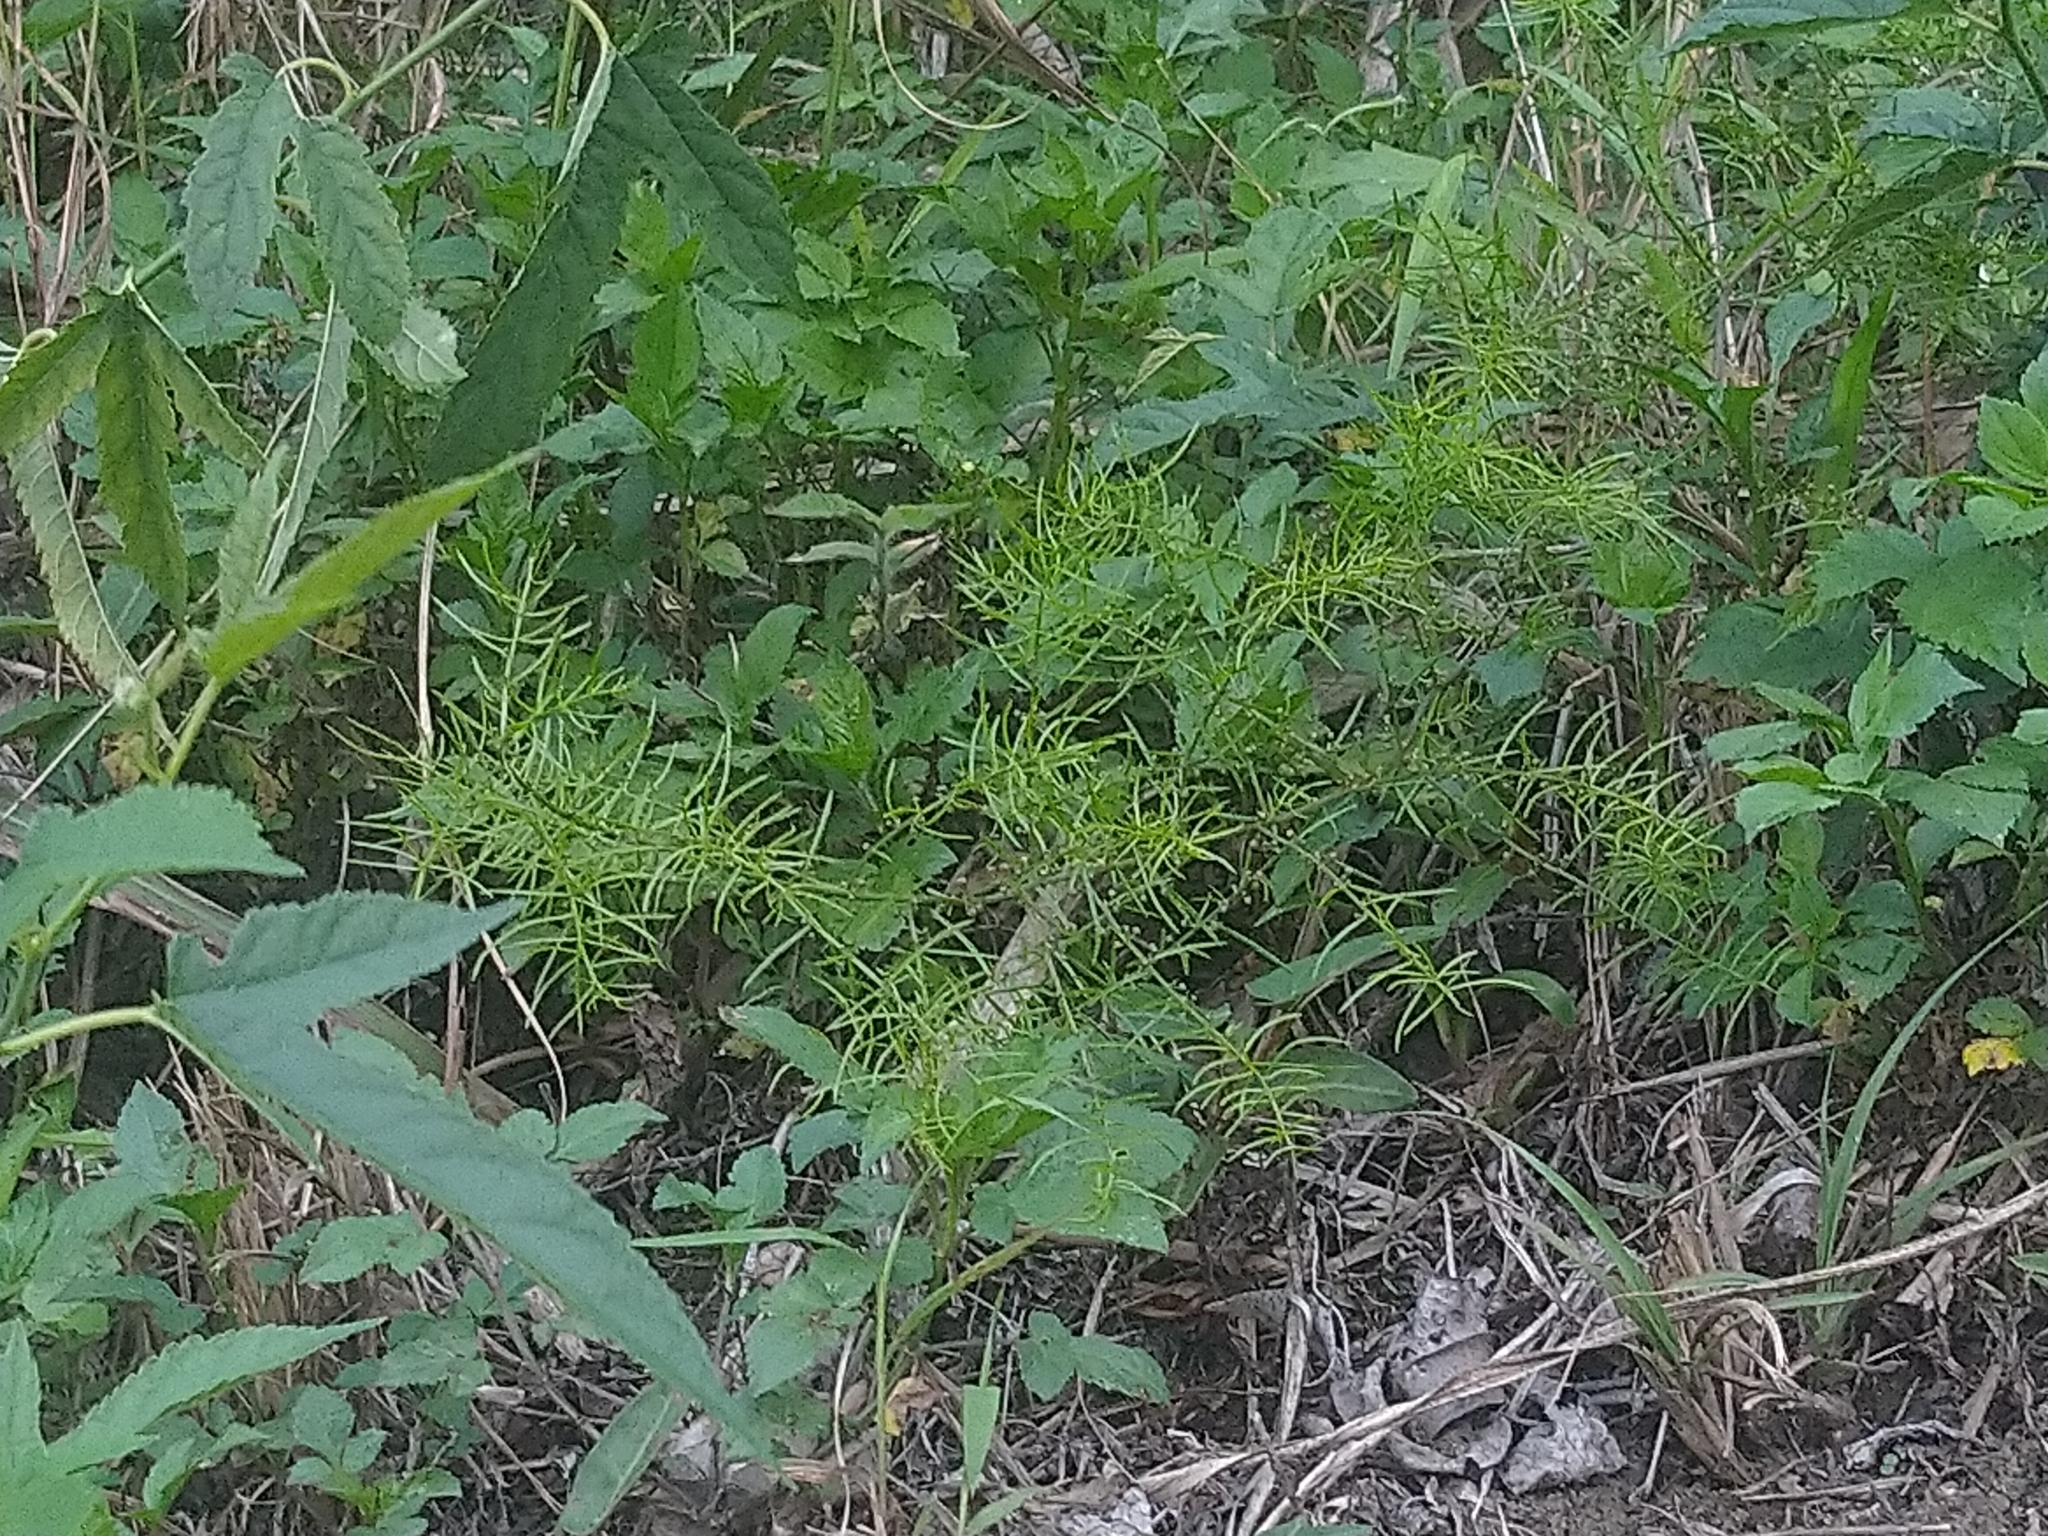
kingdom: Plantae
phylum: Tracheophyta
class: Liliopsida
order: Asparagales
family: Asparagaceae
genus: Asparagus
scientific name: Asparagus cochinchinensis
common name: Chinese asparagus
